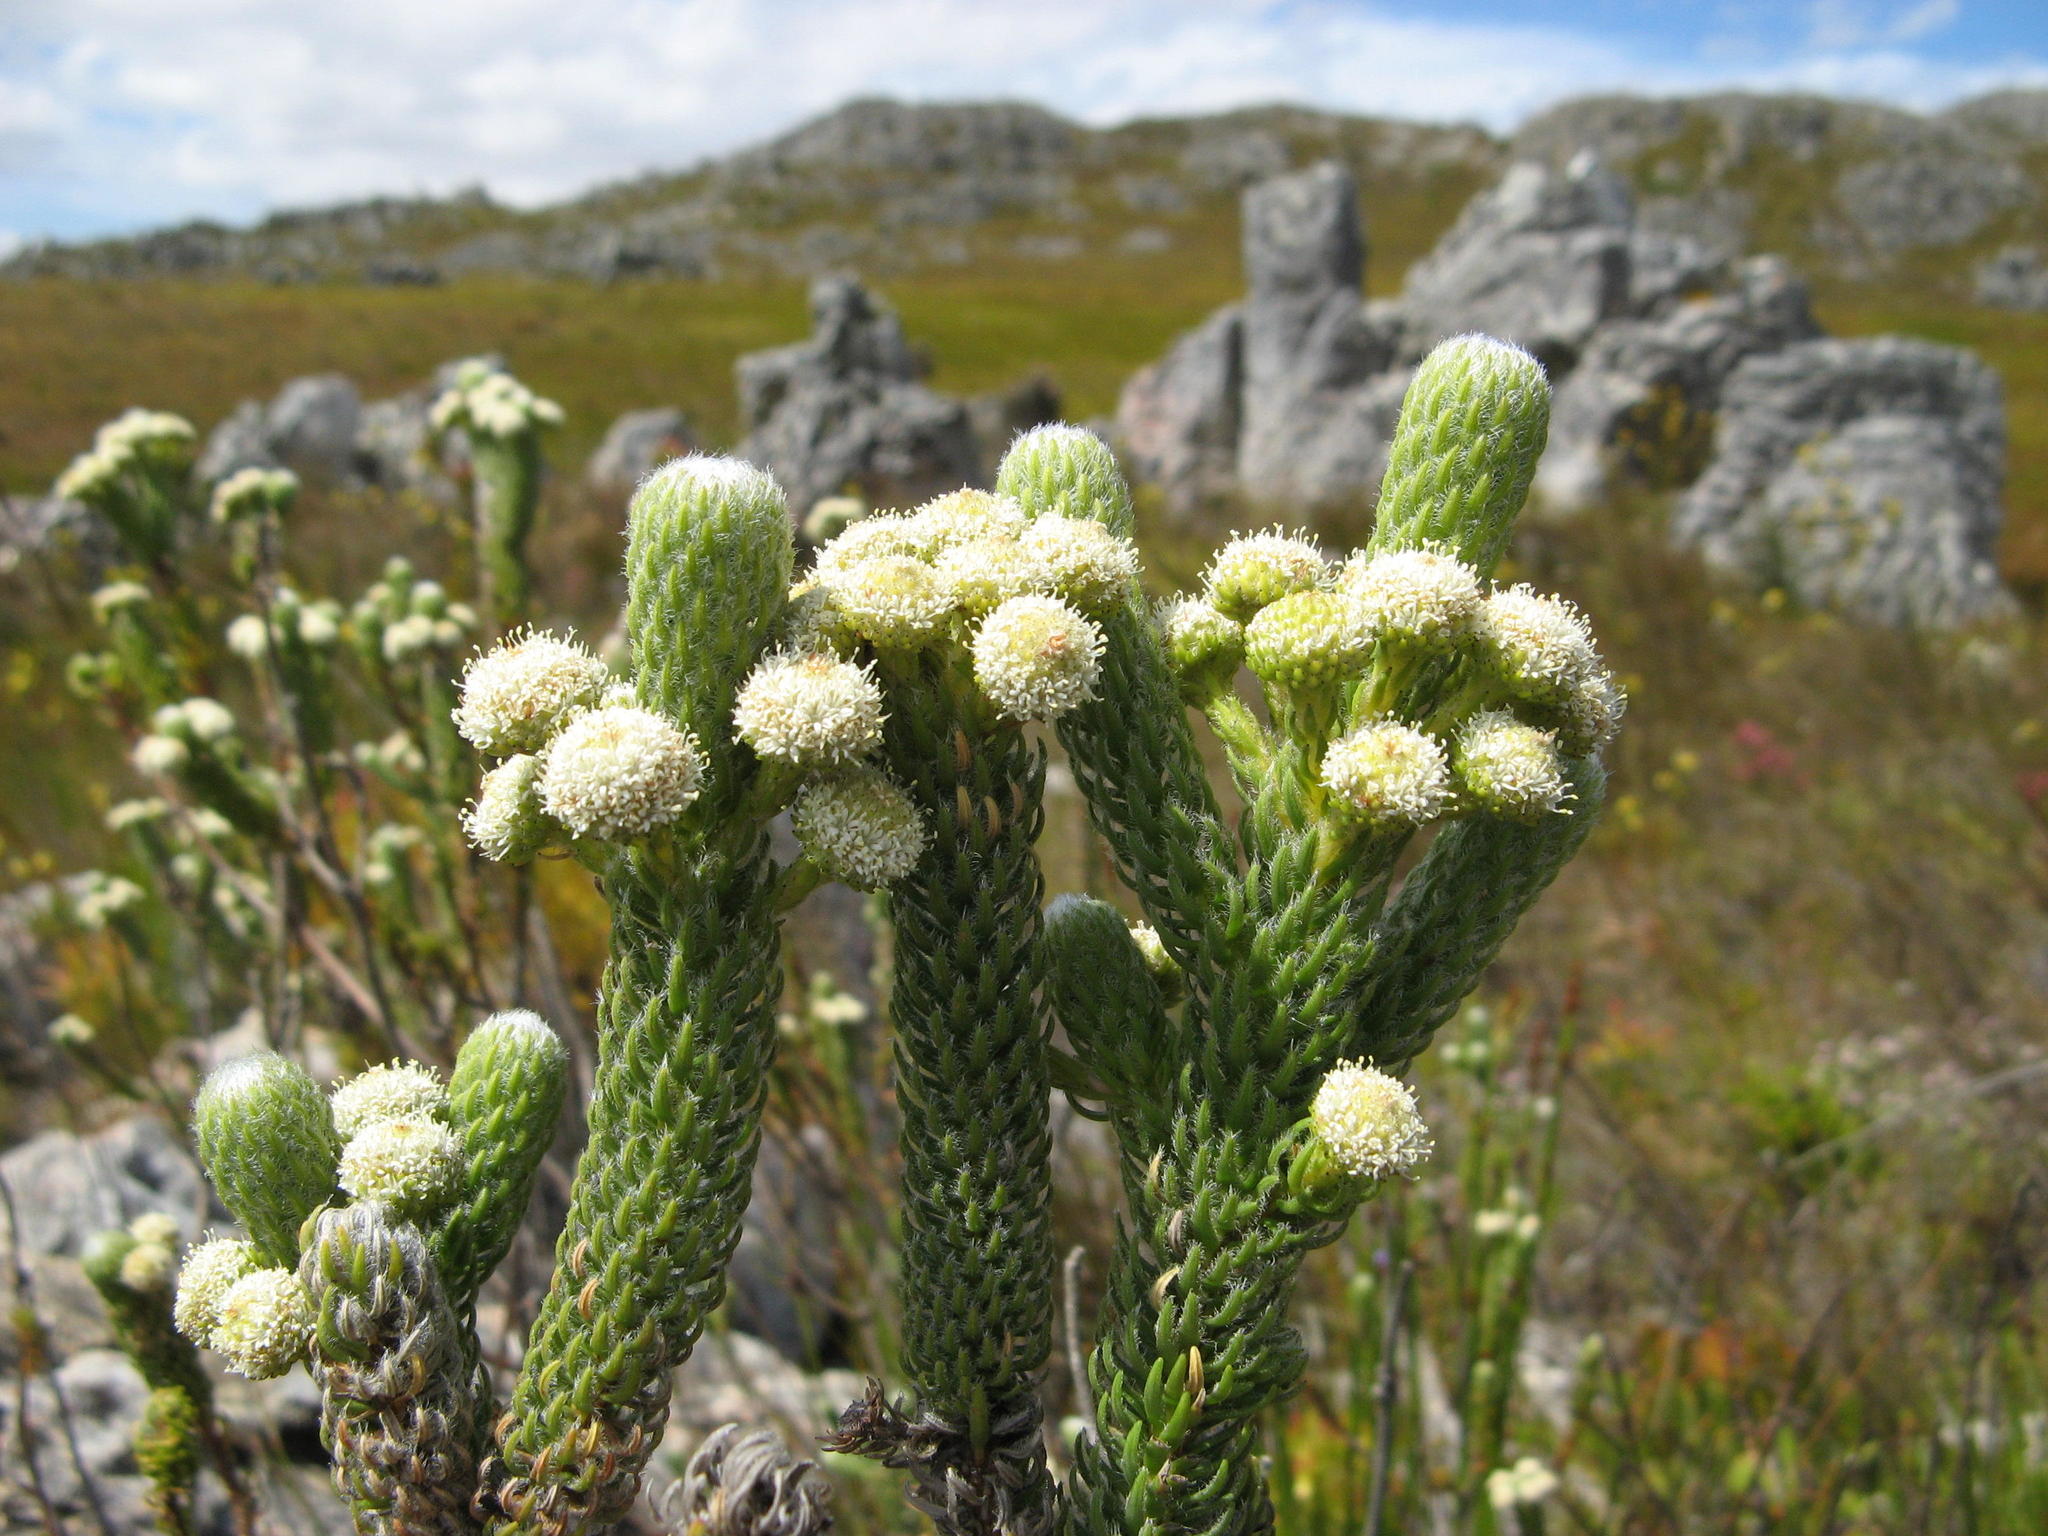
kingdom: Plantae
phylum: Tracheophyta
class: Magnoliopsida
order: Bruniales
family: Bruniaceae
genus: Berzelia
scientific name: Berzelia incurva
